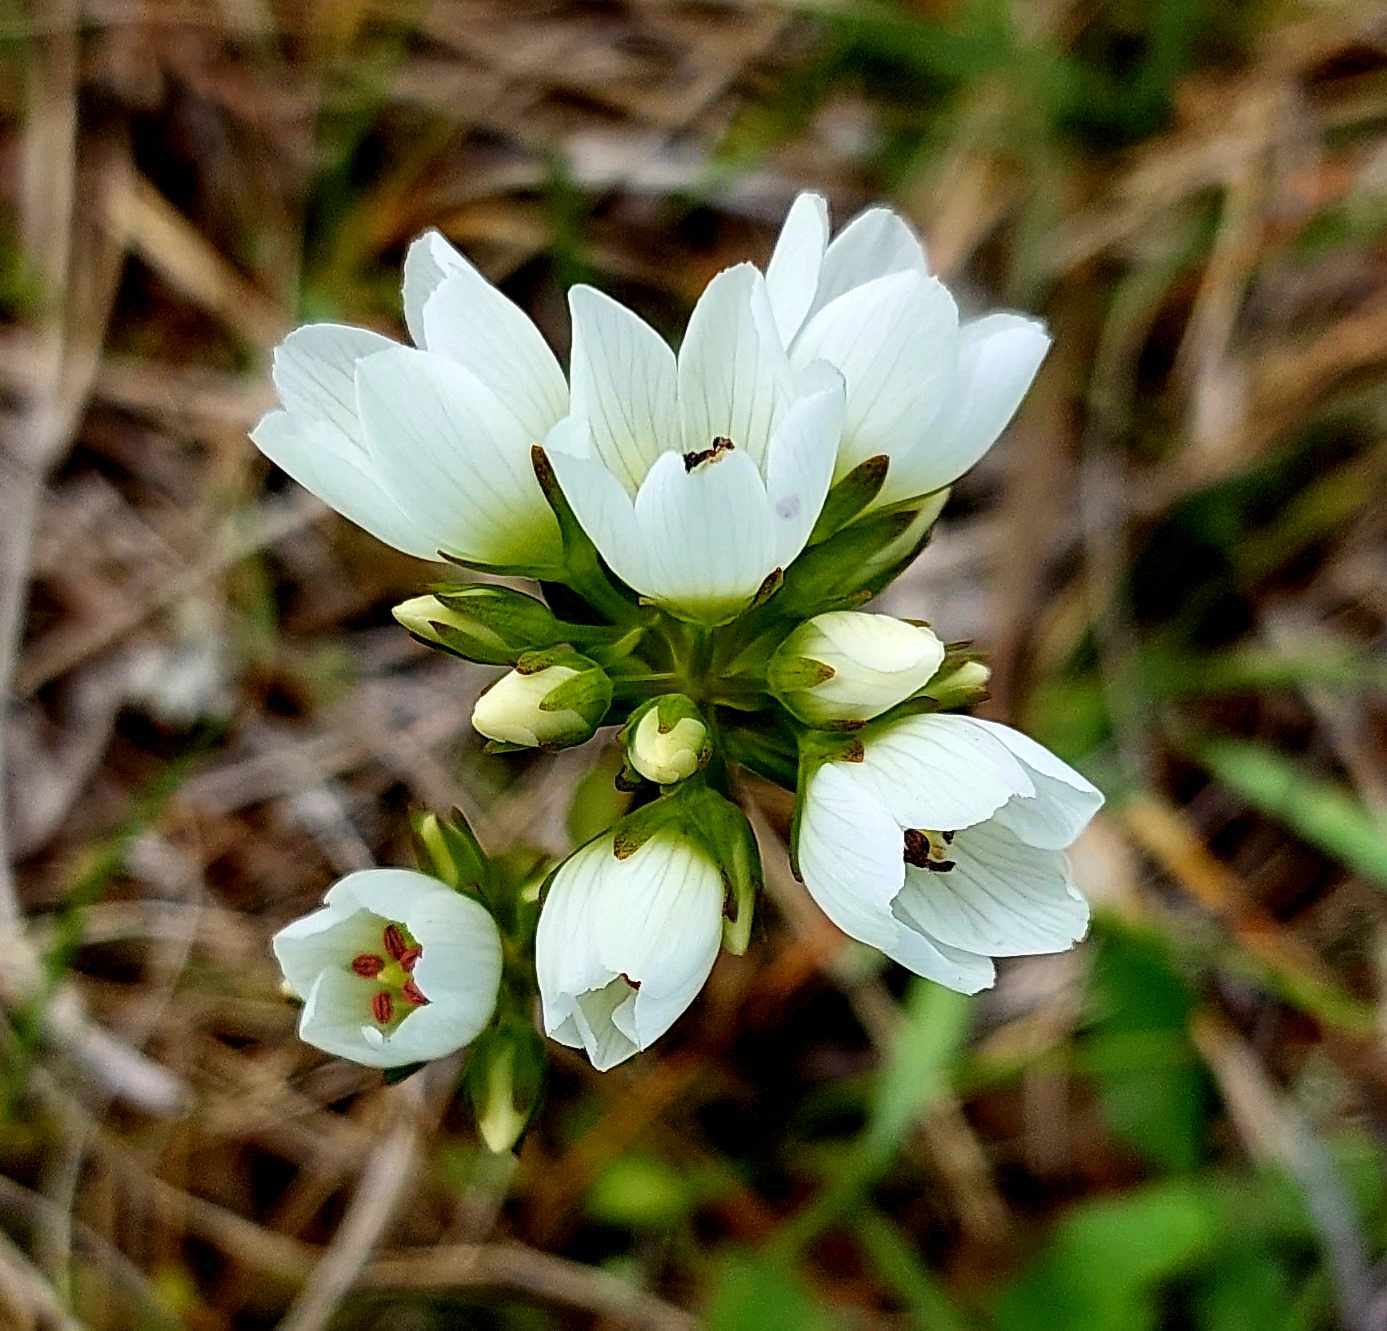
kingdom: Plantae
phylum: Tracheophyta
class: Magnoliopsida
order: Gentianales
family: Gentianaceae
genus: Gentianella
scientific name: Gentianella chathamica
